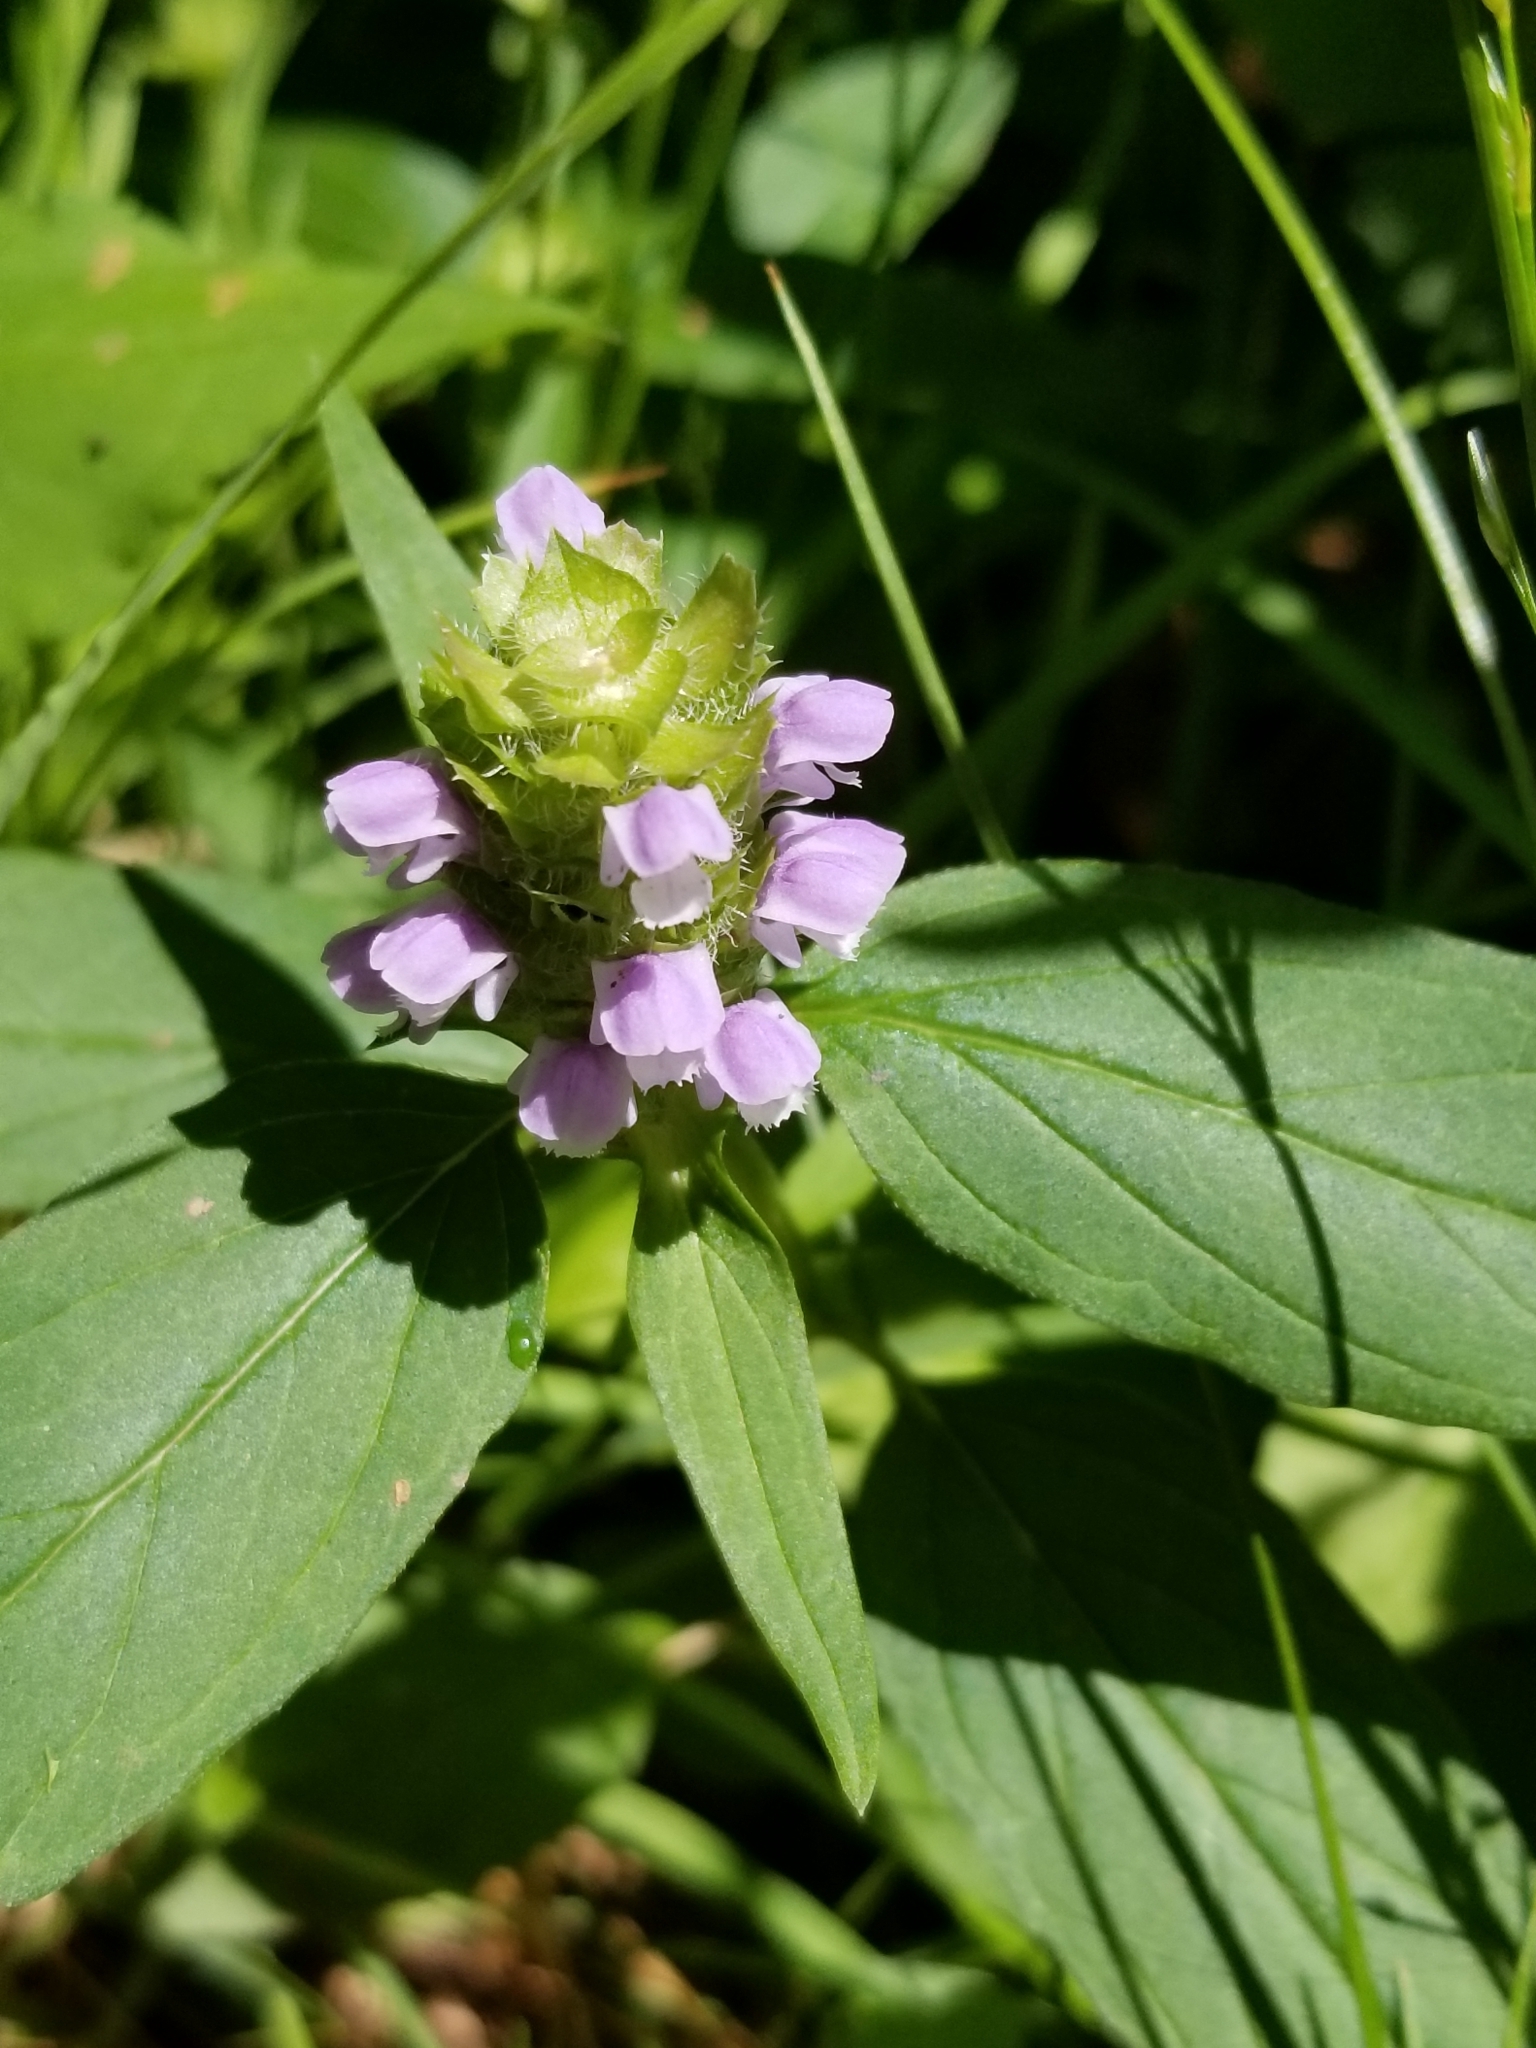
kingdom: Plantae
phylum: Tracheophyta
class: Magnoliopsida
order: Lamiales
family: Lamiaceae
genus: Prunella
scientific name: Prunella vulgaris
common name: Heal-all
